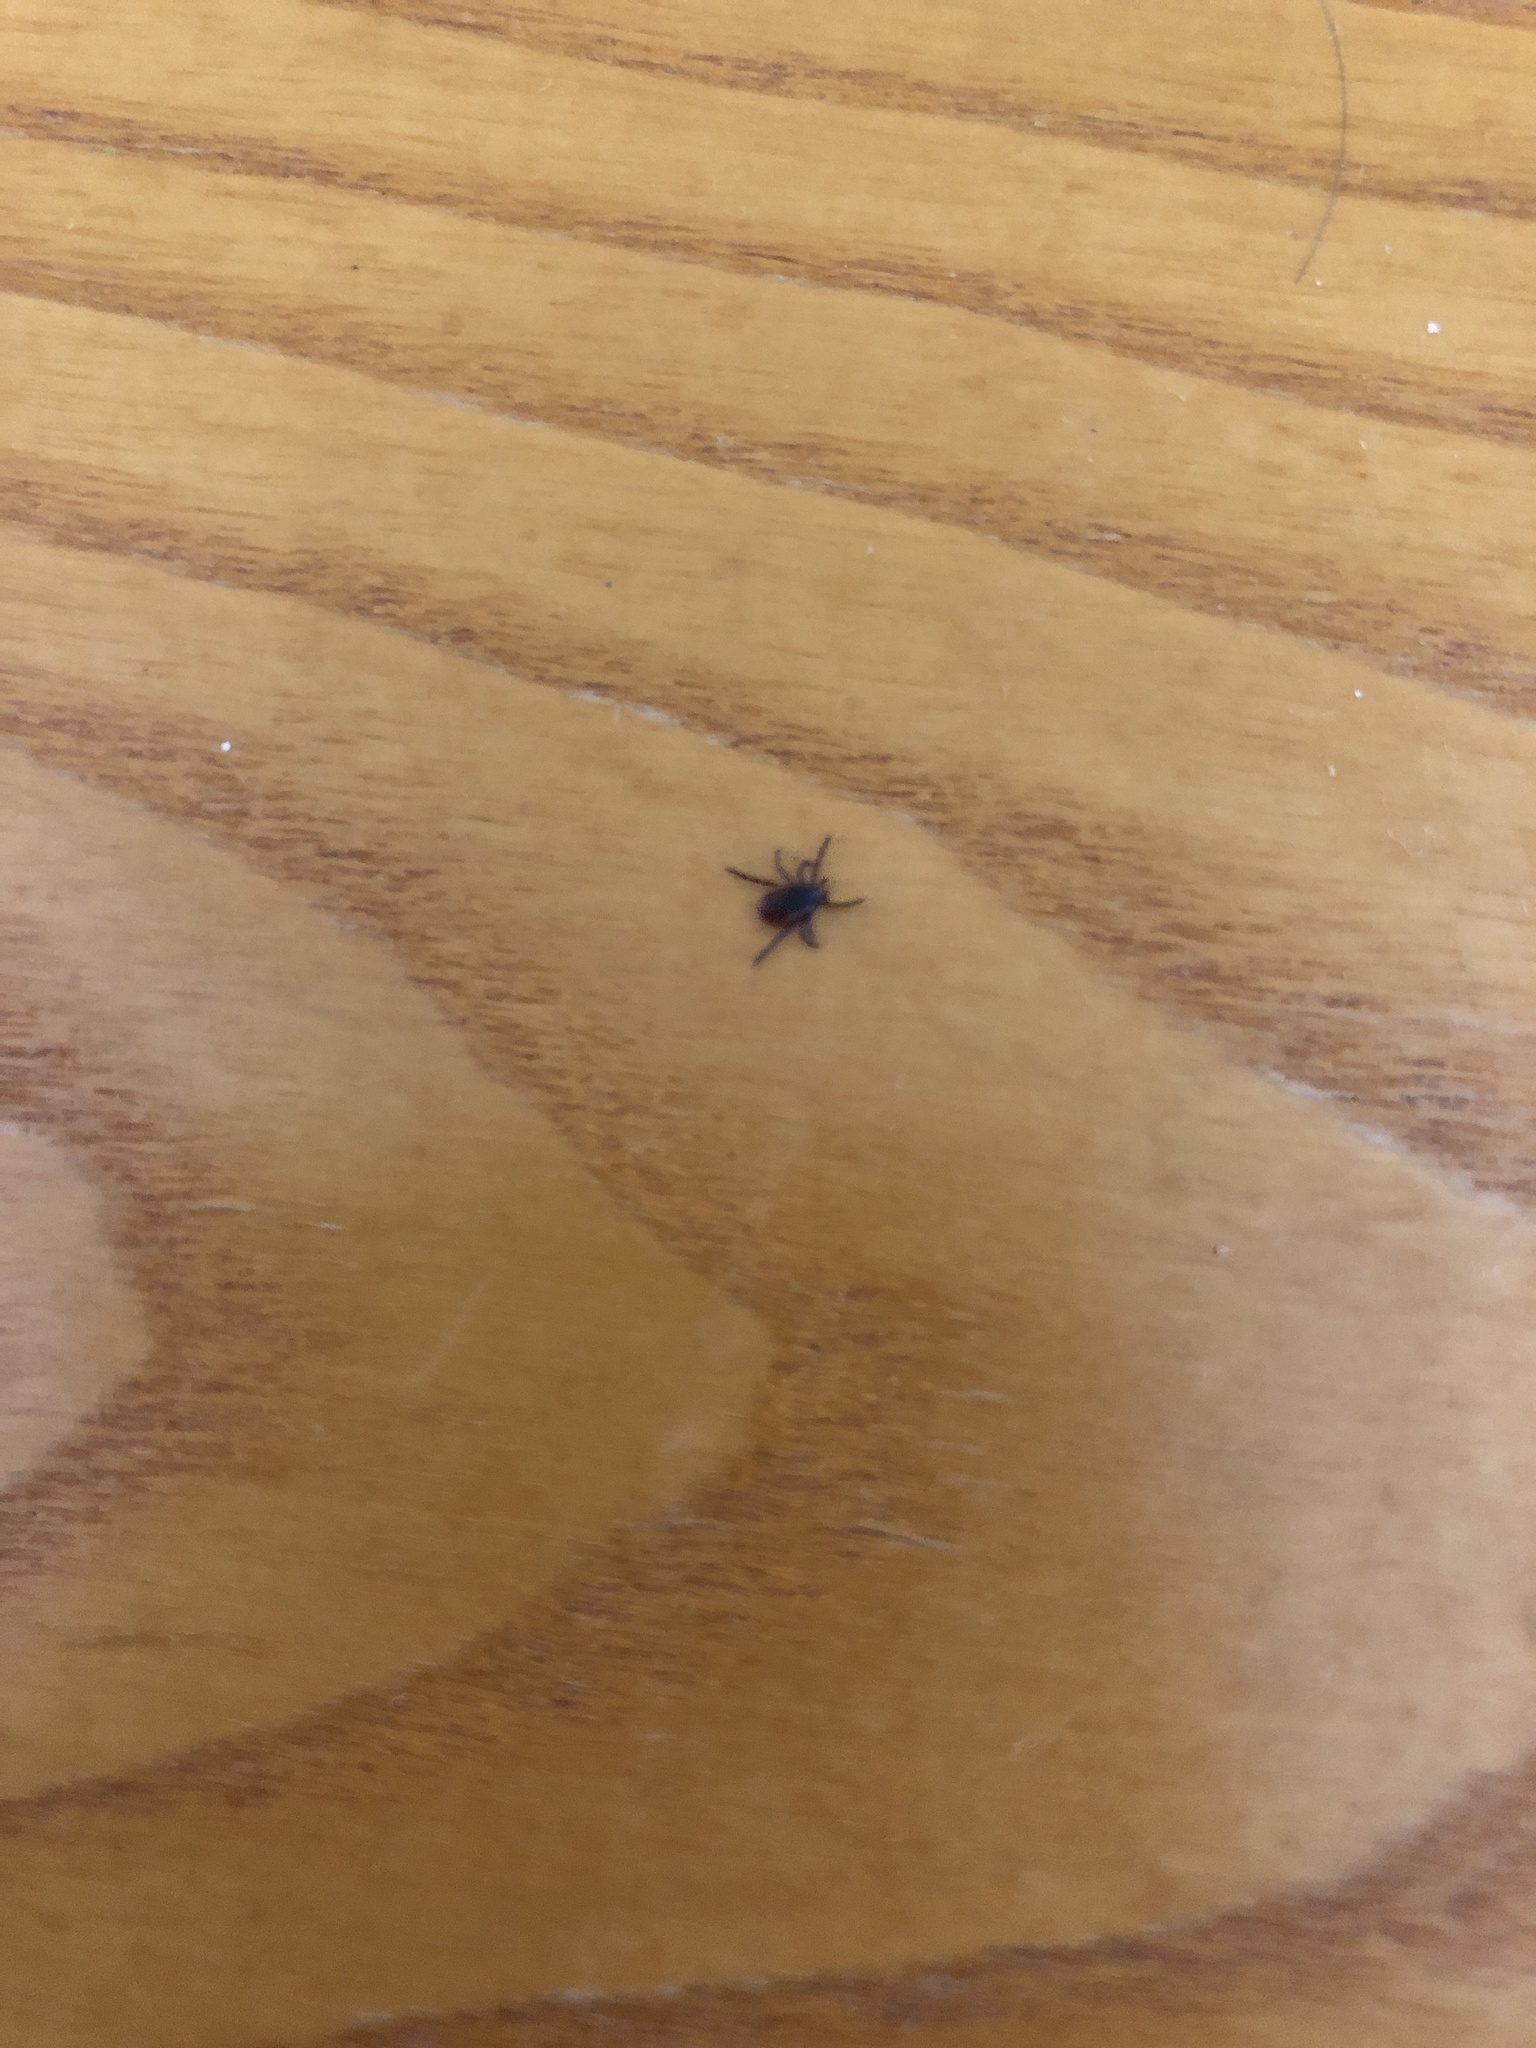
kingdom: Animalia
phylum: Arthropoda
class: Arachnida
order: Ixodida
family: Ixodidae
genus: Ixodes
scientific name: Ixodes scapularis
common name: Black legged tick
